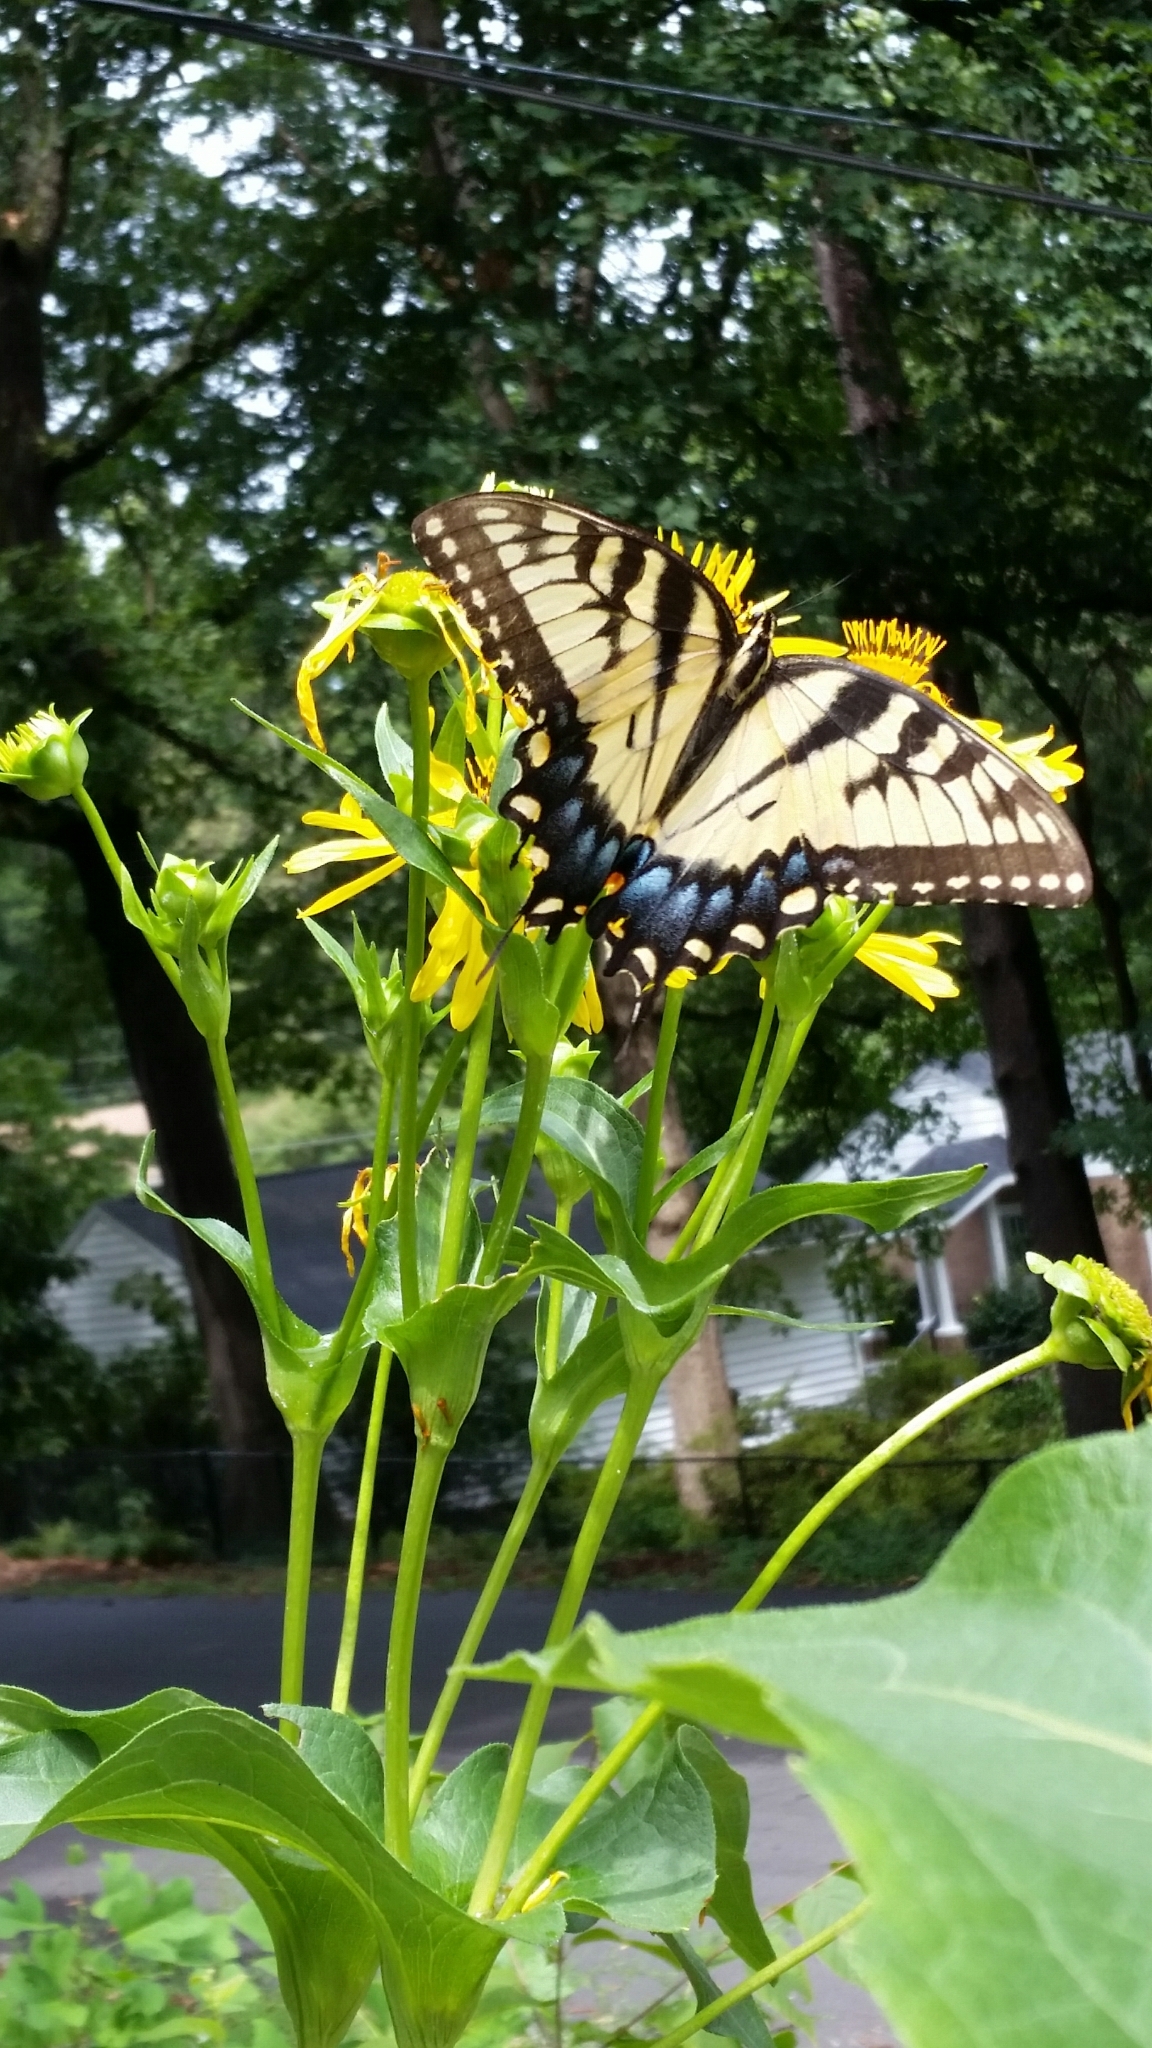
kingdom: Animalia
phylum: Arthropoda
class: Insecta
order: Lepidoptera
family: Papilionidae
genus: Papilio
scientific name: Papilio glaucus
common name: Tiger swallowtail
